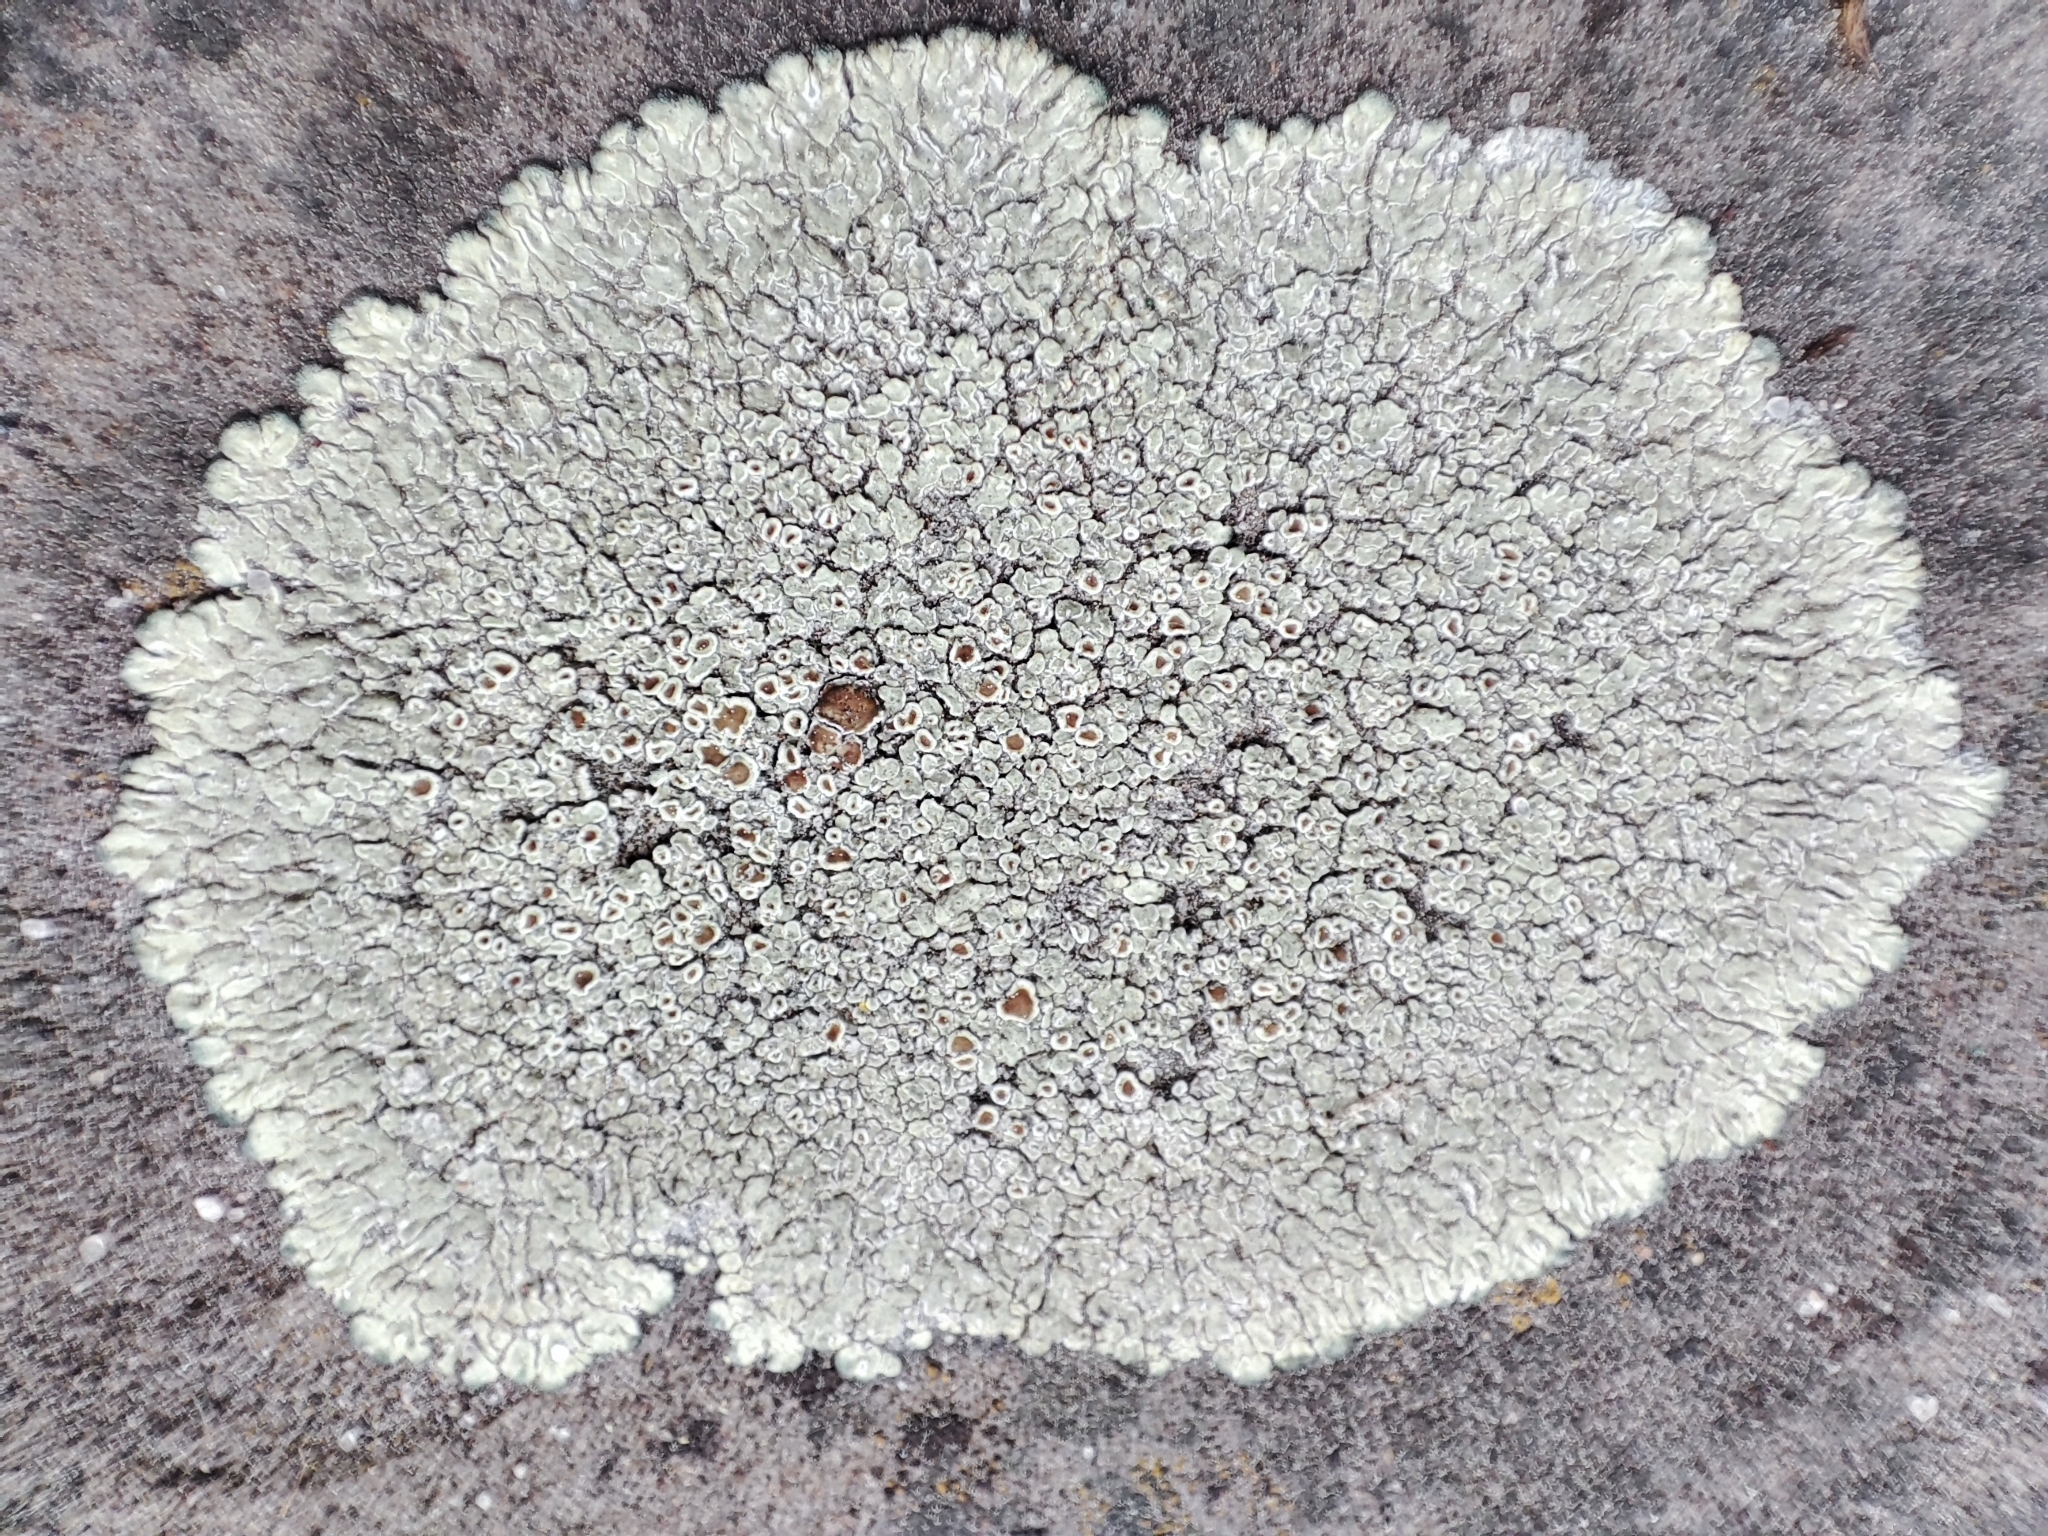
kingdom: Fungi
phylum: Ascomycota
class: Lecanoromycetes
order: Lecanorales
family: Lecanoraceae
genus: Protoparmeliopsis
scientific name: Protoparmeliopsis muralis
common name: Stonewall rim lichen
